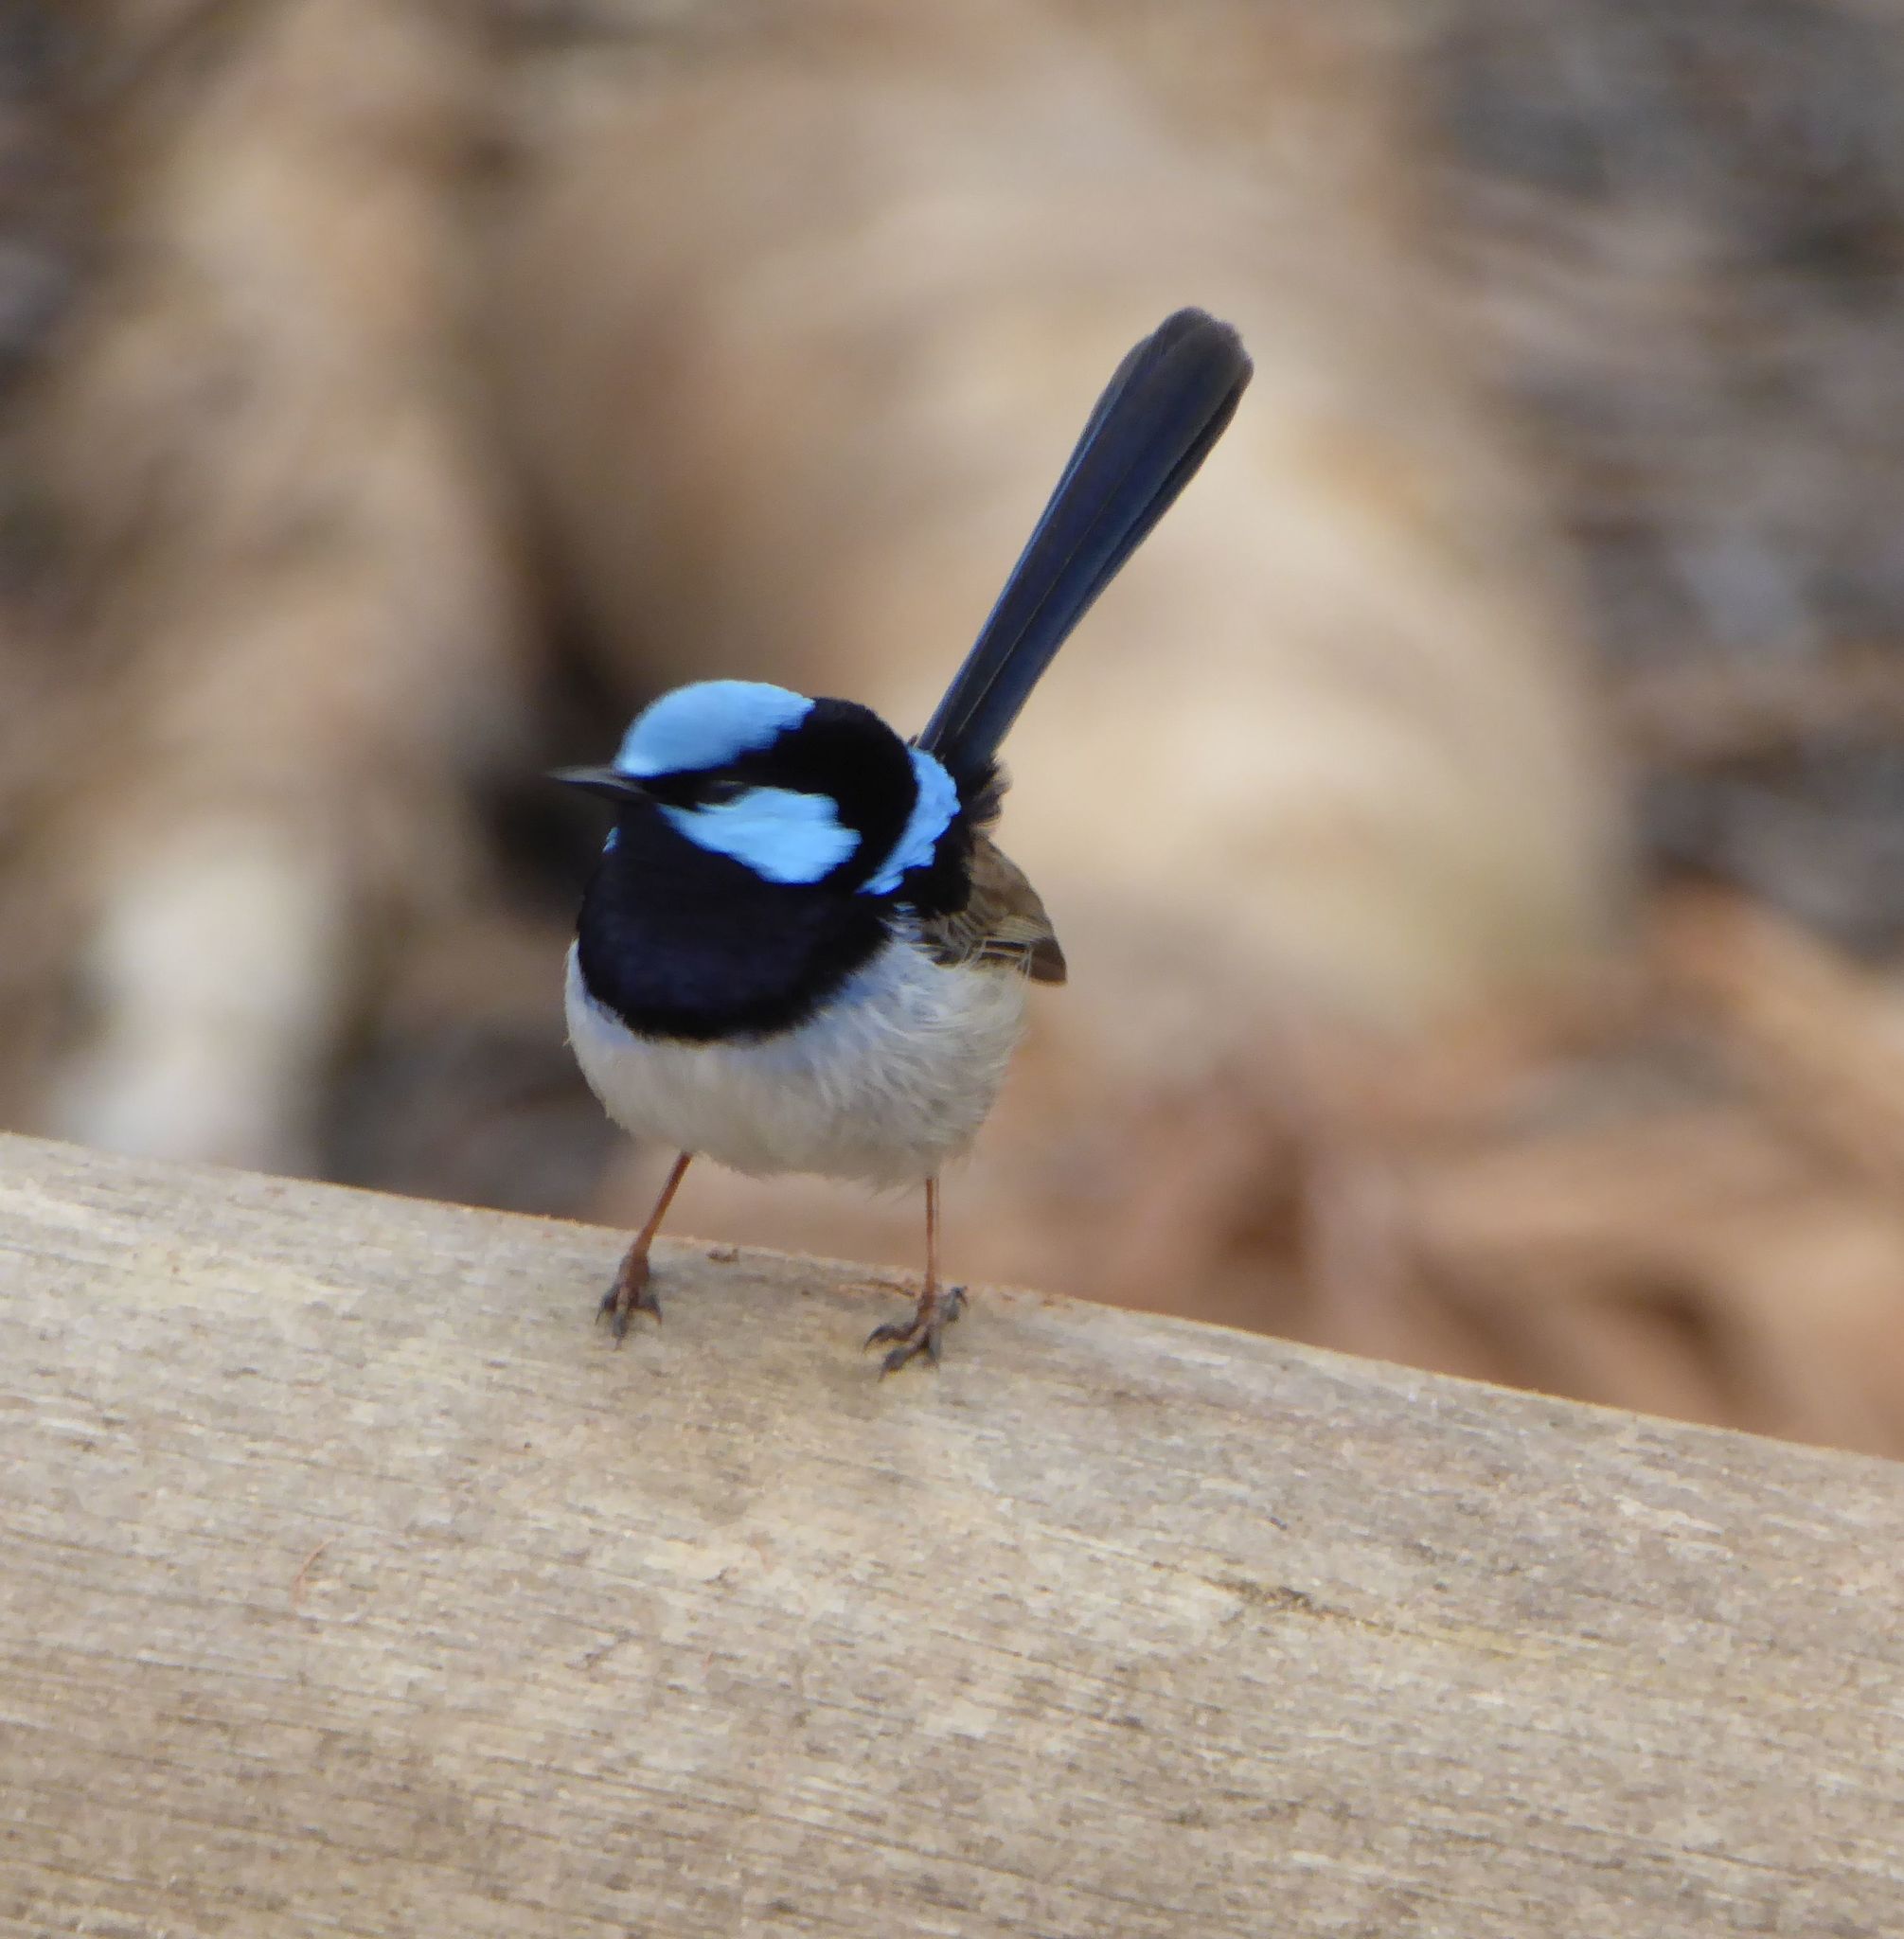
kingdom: Animalia
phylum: Chordata
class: Aves
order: Passeriformes
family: Maluridae
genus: Malurus
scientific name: Malurus cyaneus
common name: Superb fairywren
